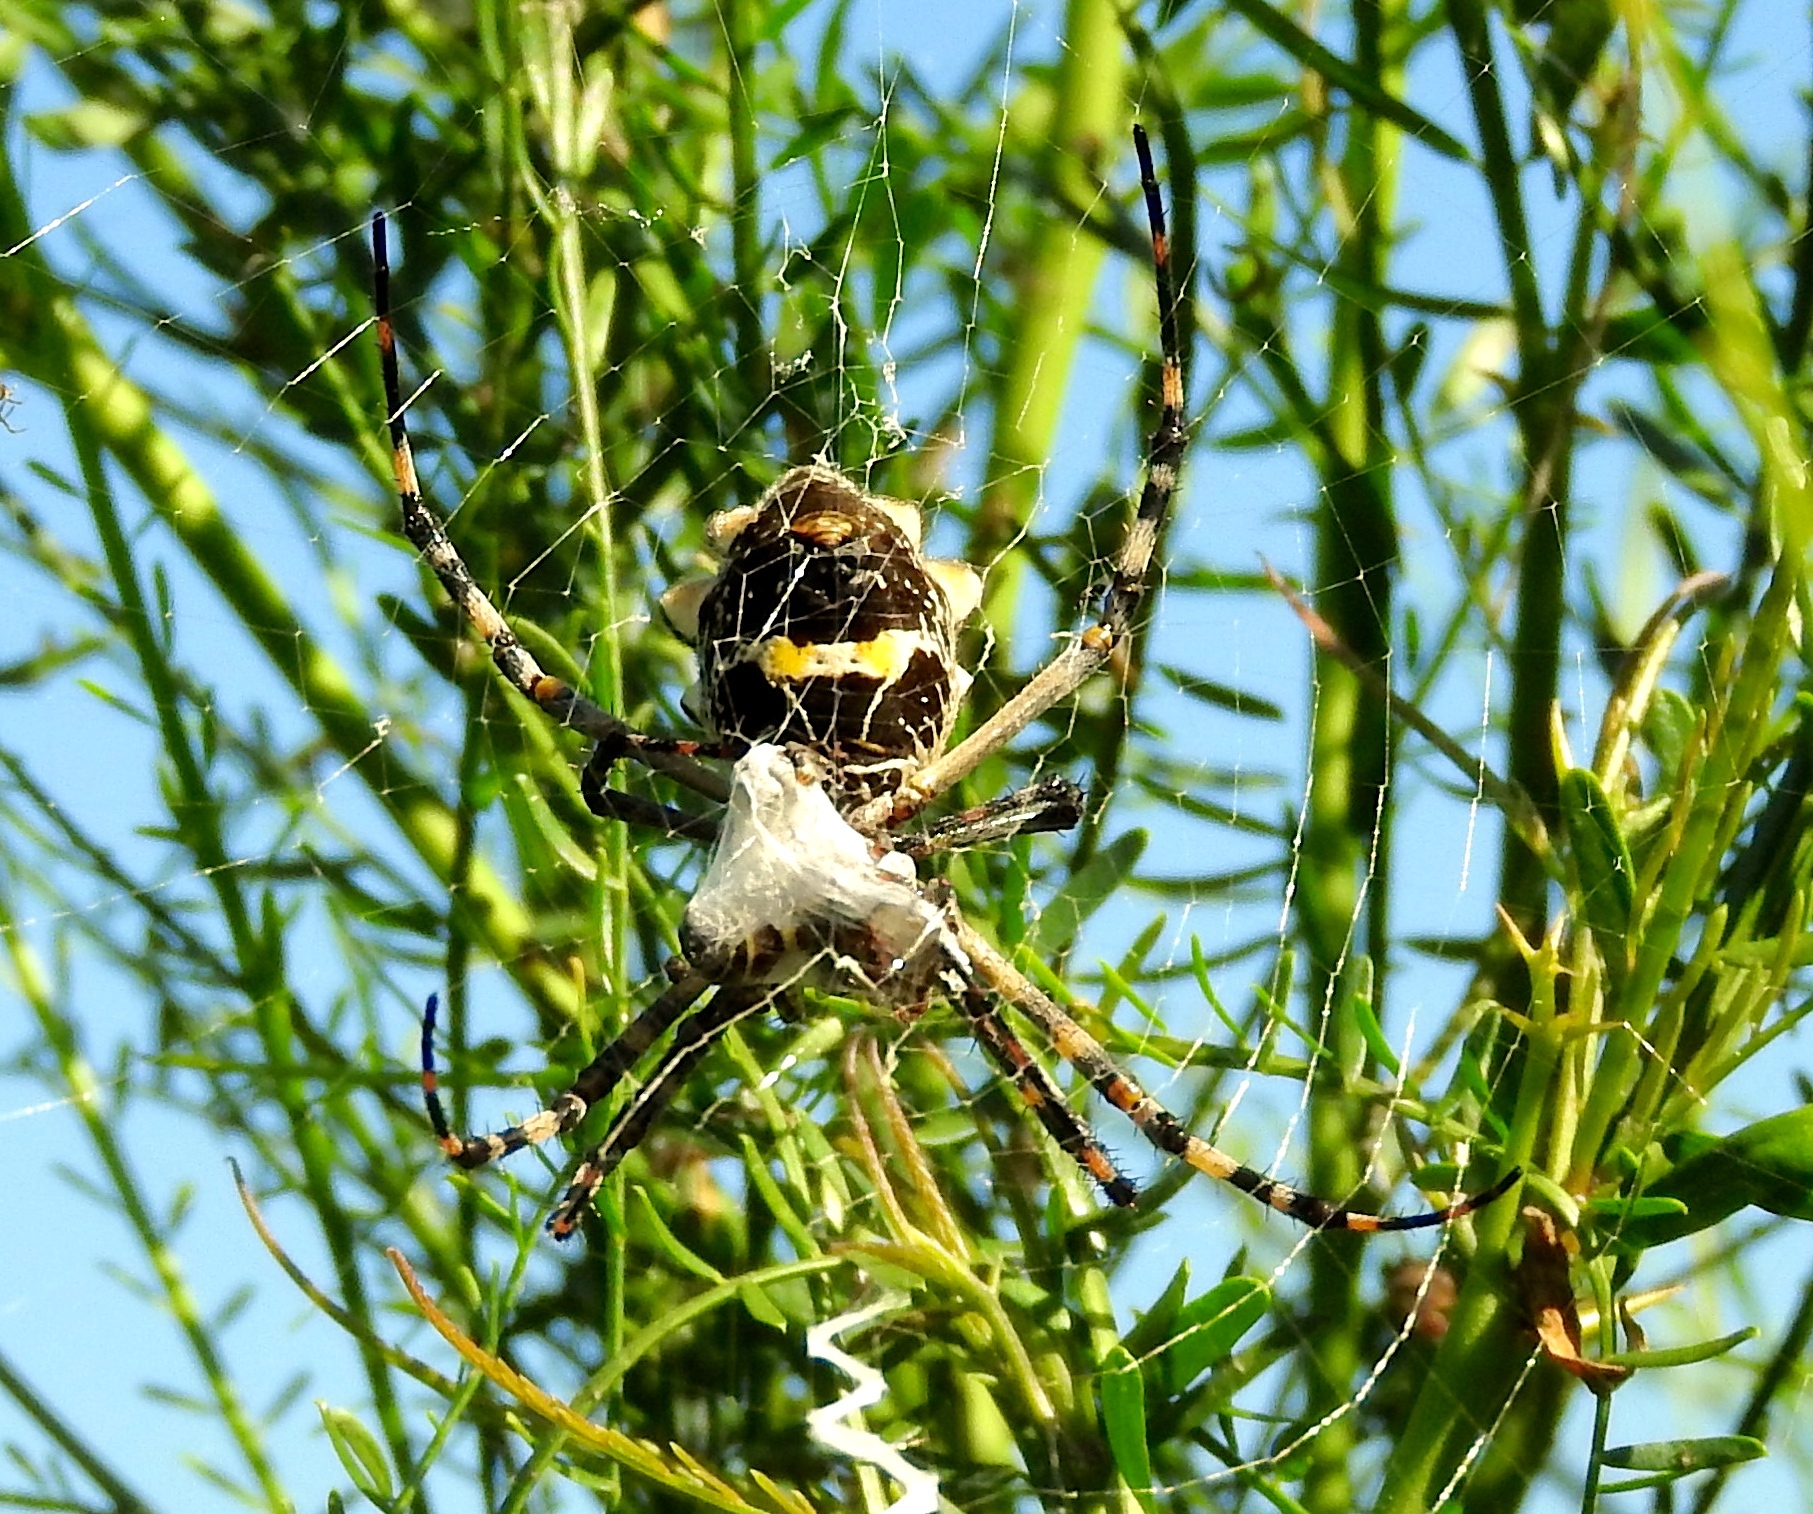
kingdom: Animalia
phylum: Arthropoda
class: Arachnida
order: Araneae
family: Araneidae
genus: Argiope
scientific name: Argiope argentata
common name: Orb weavers
